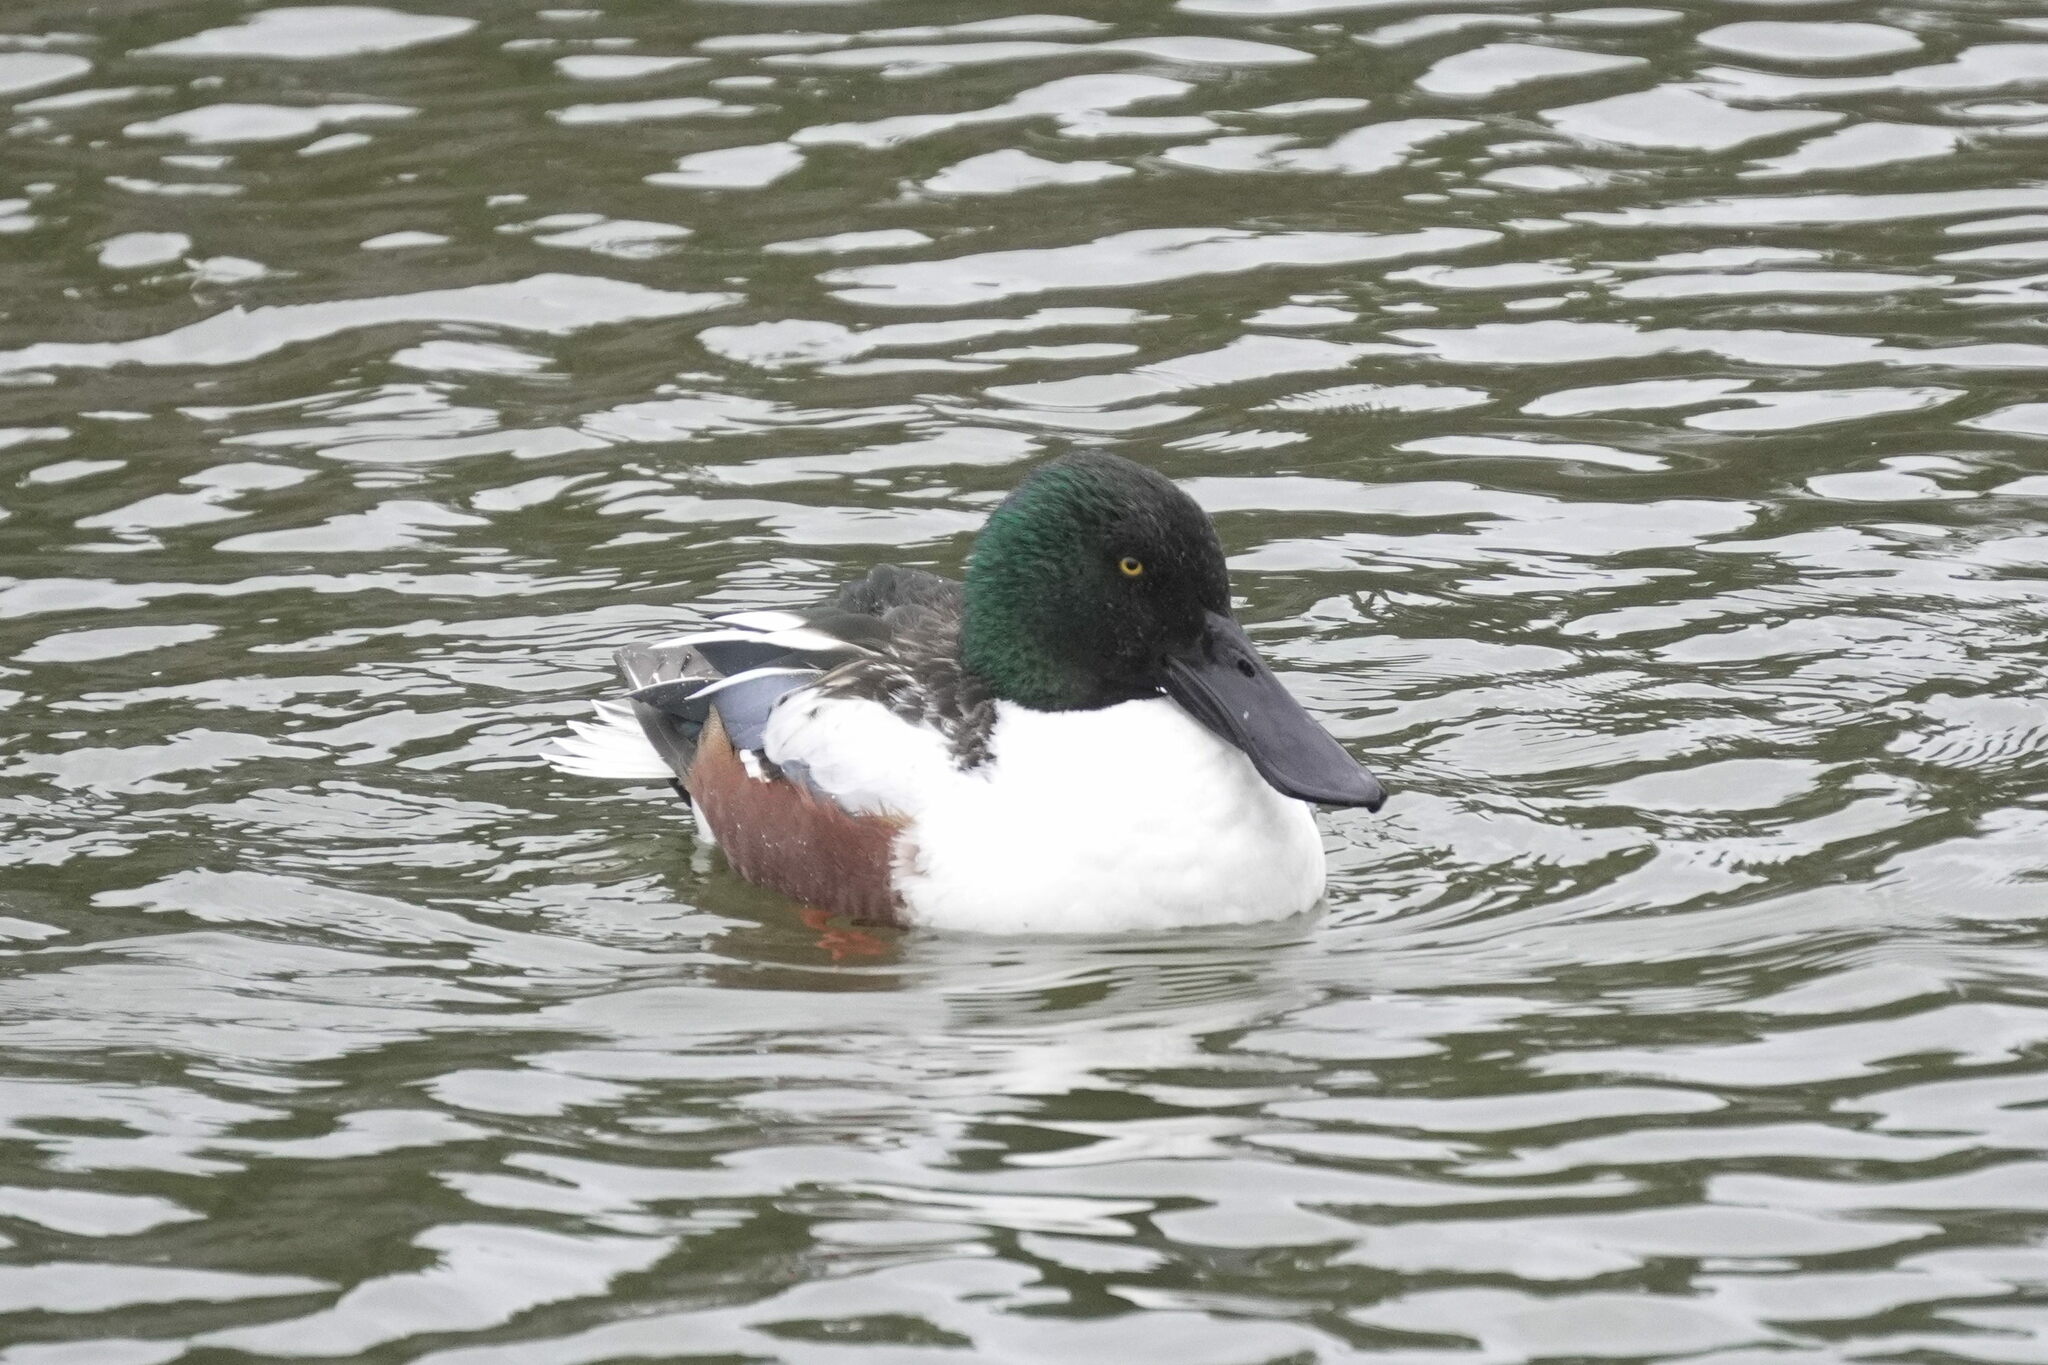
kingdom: Animalia
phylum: Chordata
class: Aves
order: Anseriformes
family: Anatidae
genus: Spatula
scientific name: Spatula clypeata
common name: Northern shoveler
